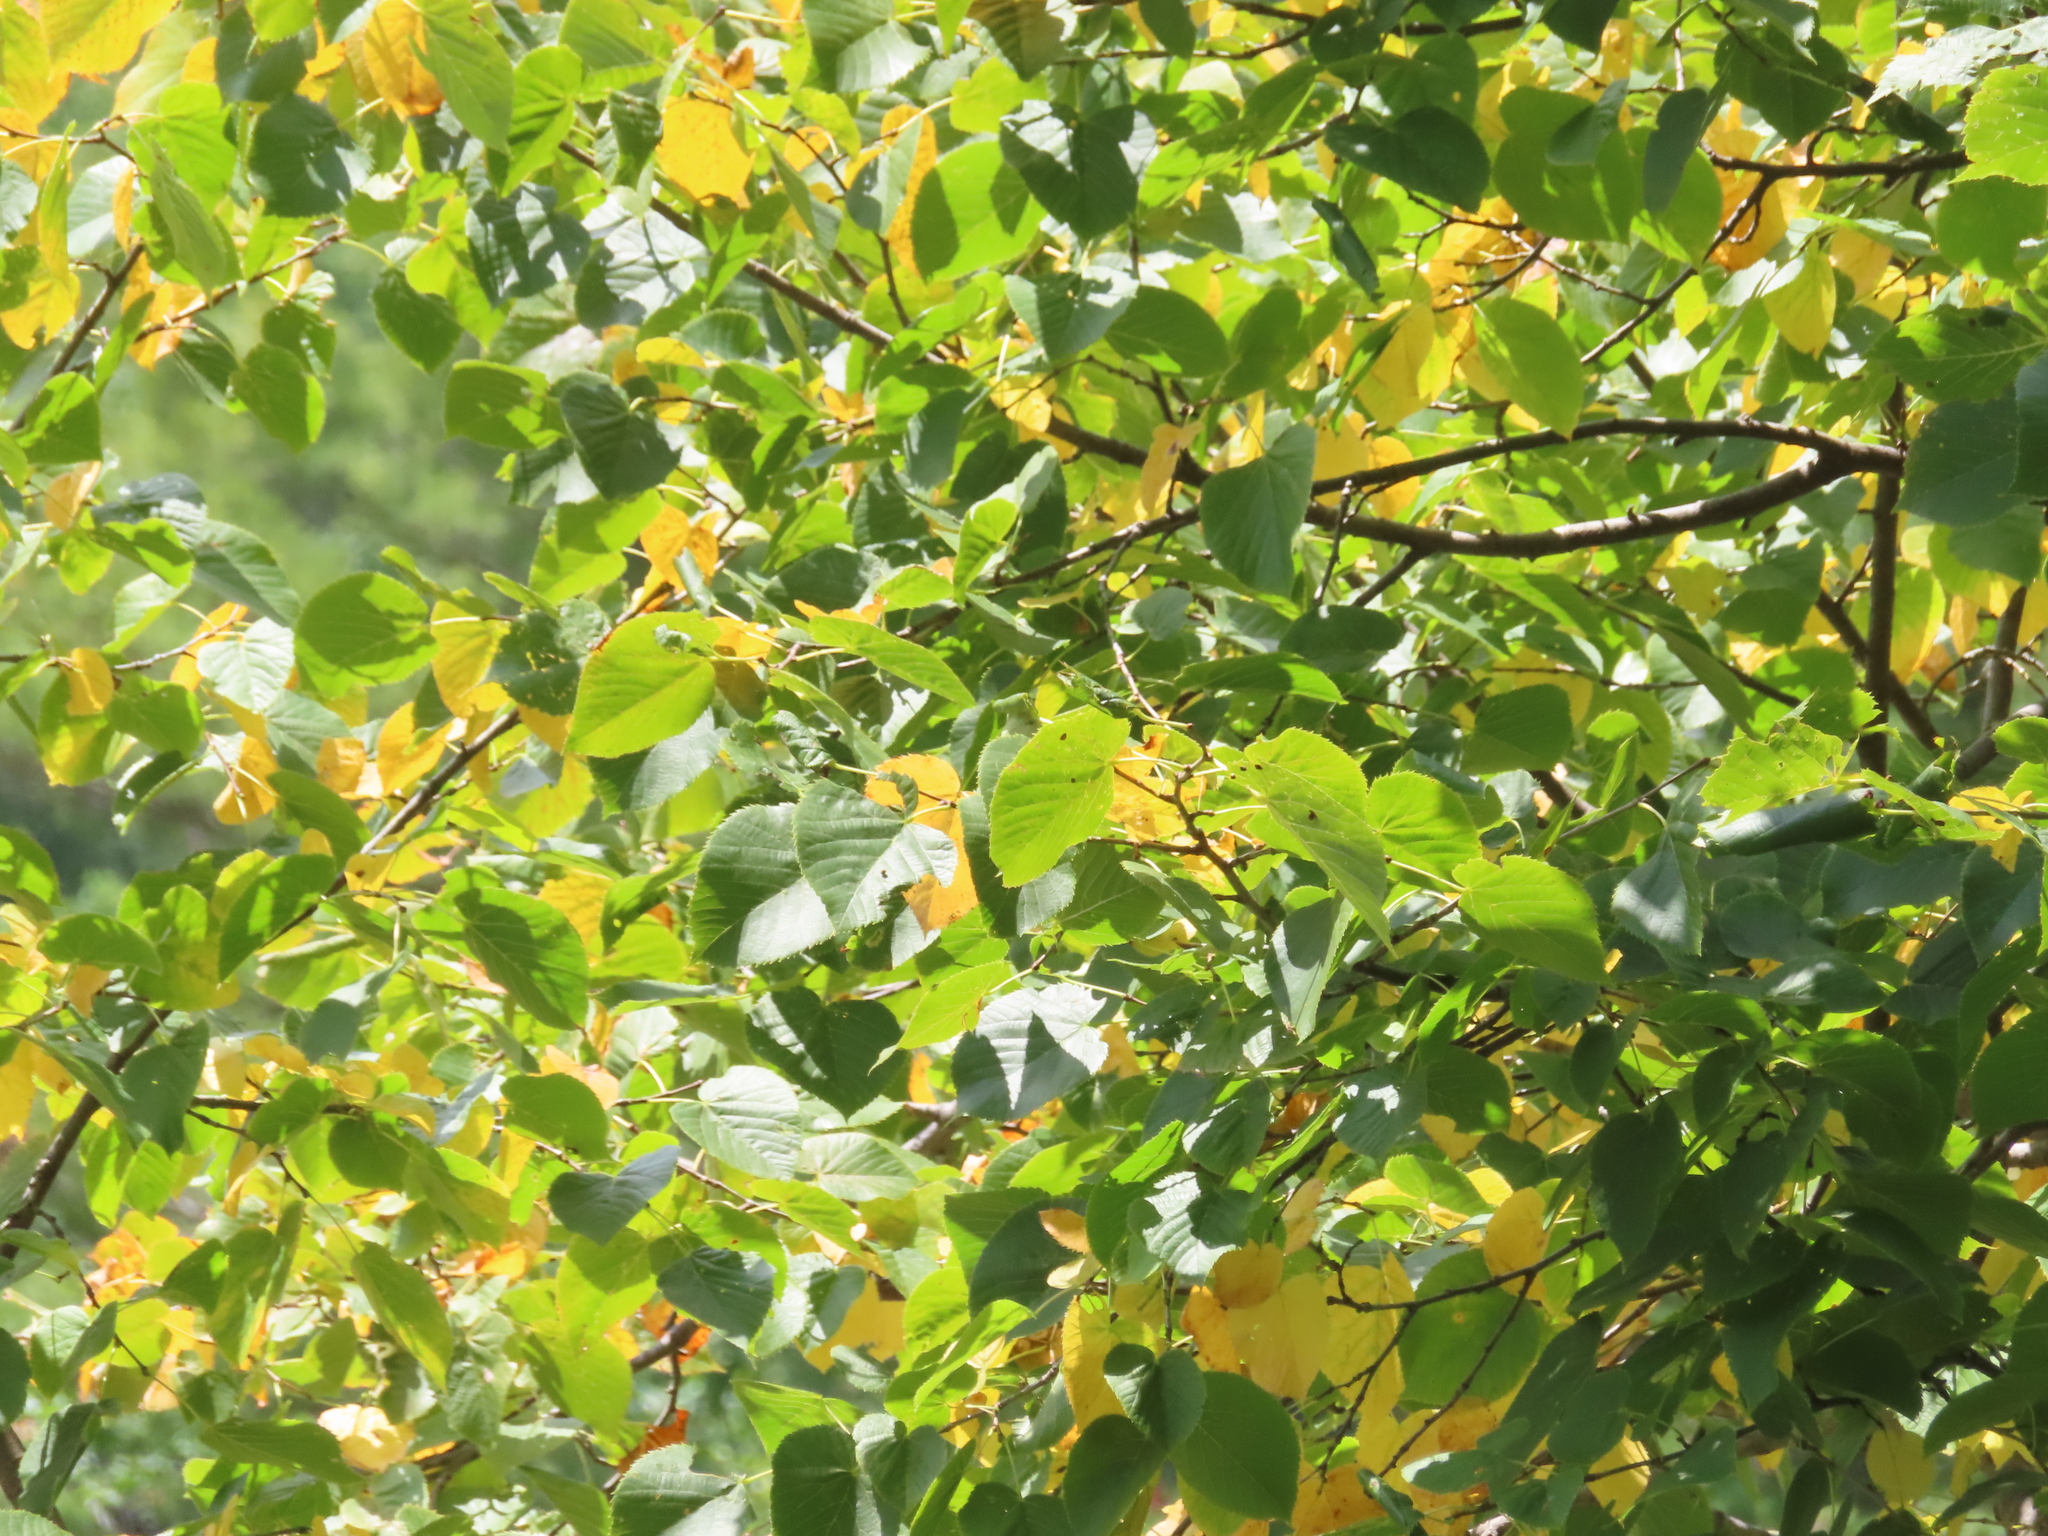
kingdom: Plantae
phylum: Tracheophyta
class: Magnoliopsida
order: Malvales
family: Malvaceae
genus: Tilia
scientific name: Tilia americana
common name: Basswood
